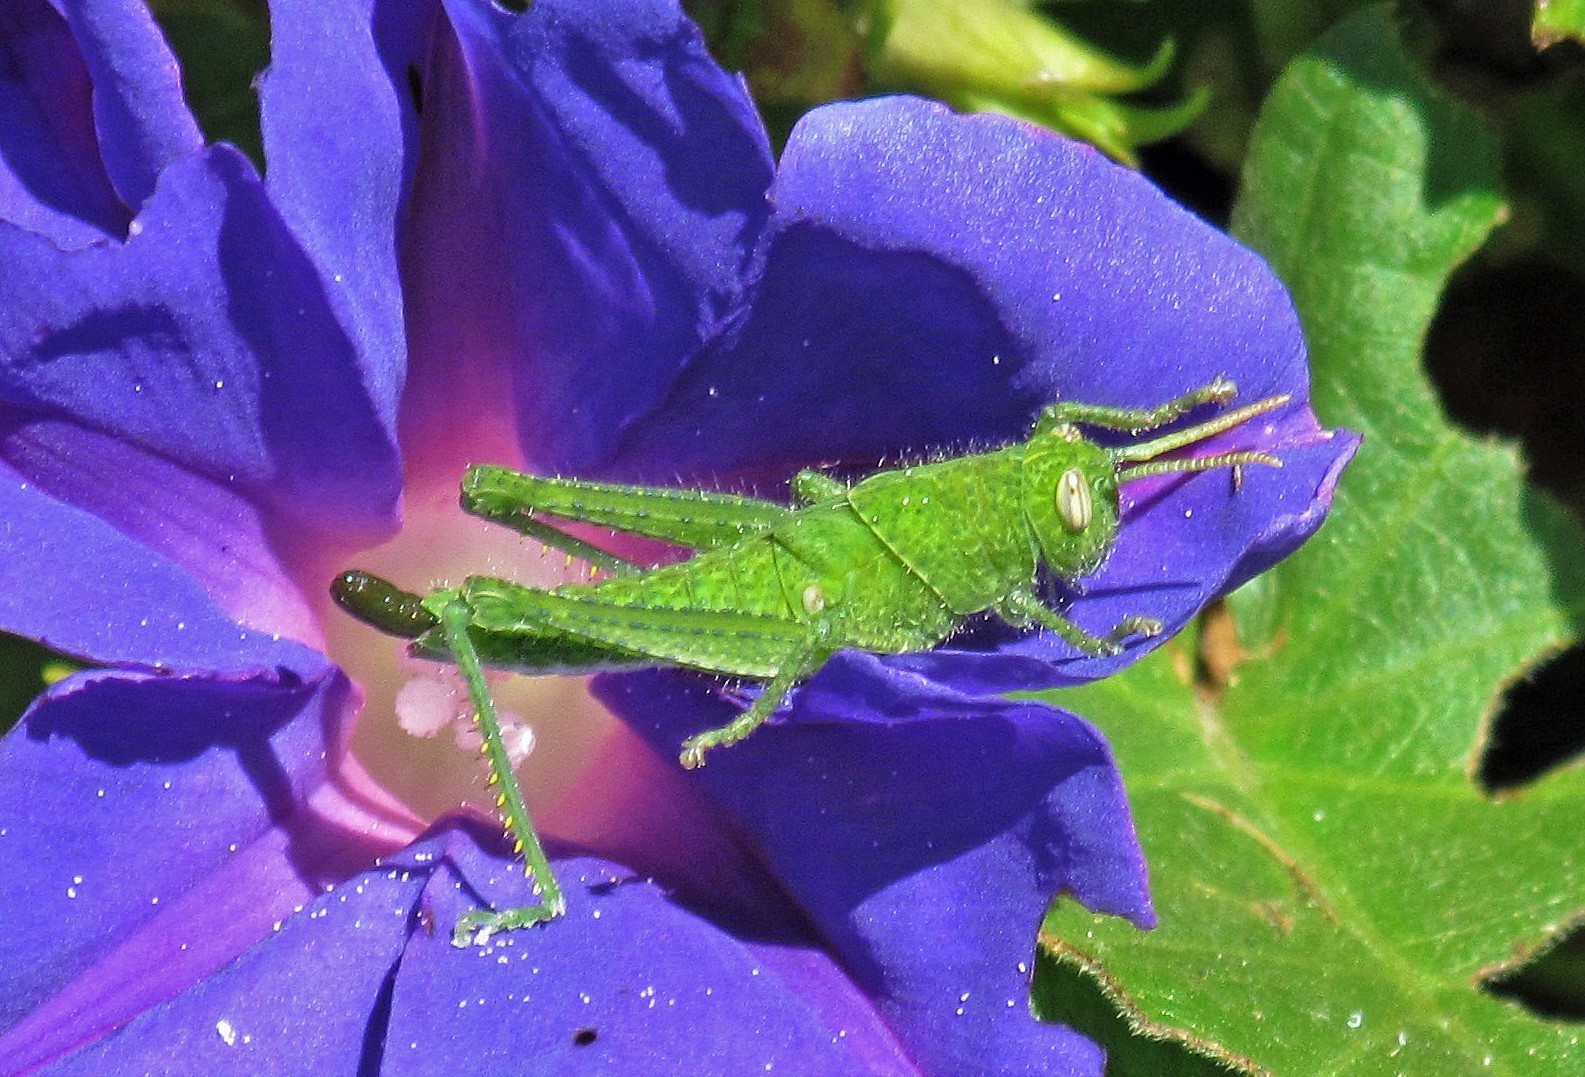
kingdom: Animalia
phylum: Arthropoda
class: Insecta
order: Orthoptera
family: Acrididae
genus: Schistocerca
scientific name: Schistocerca flavofasciata
